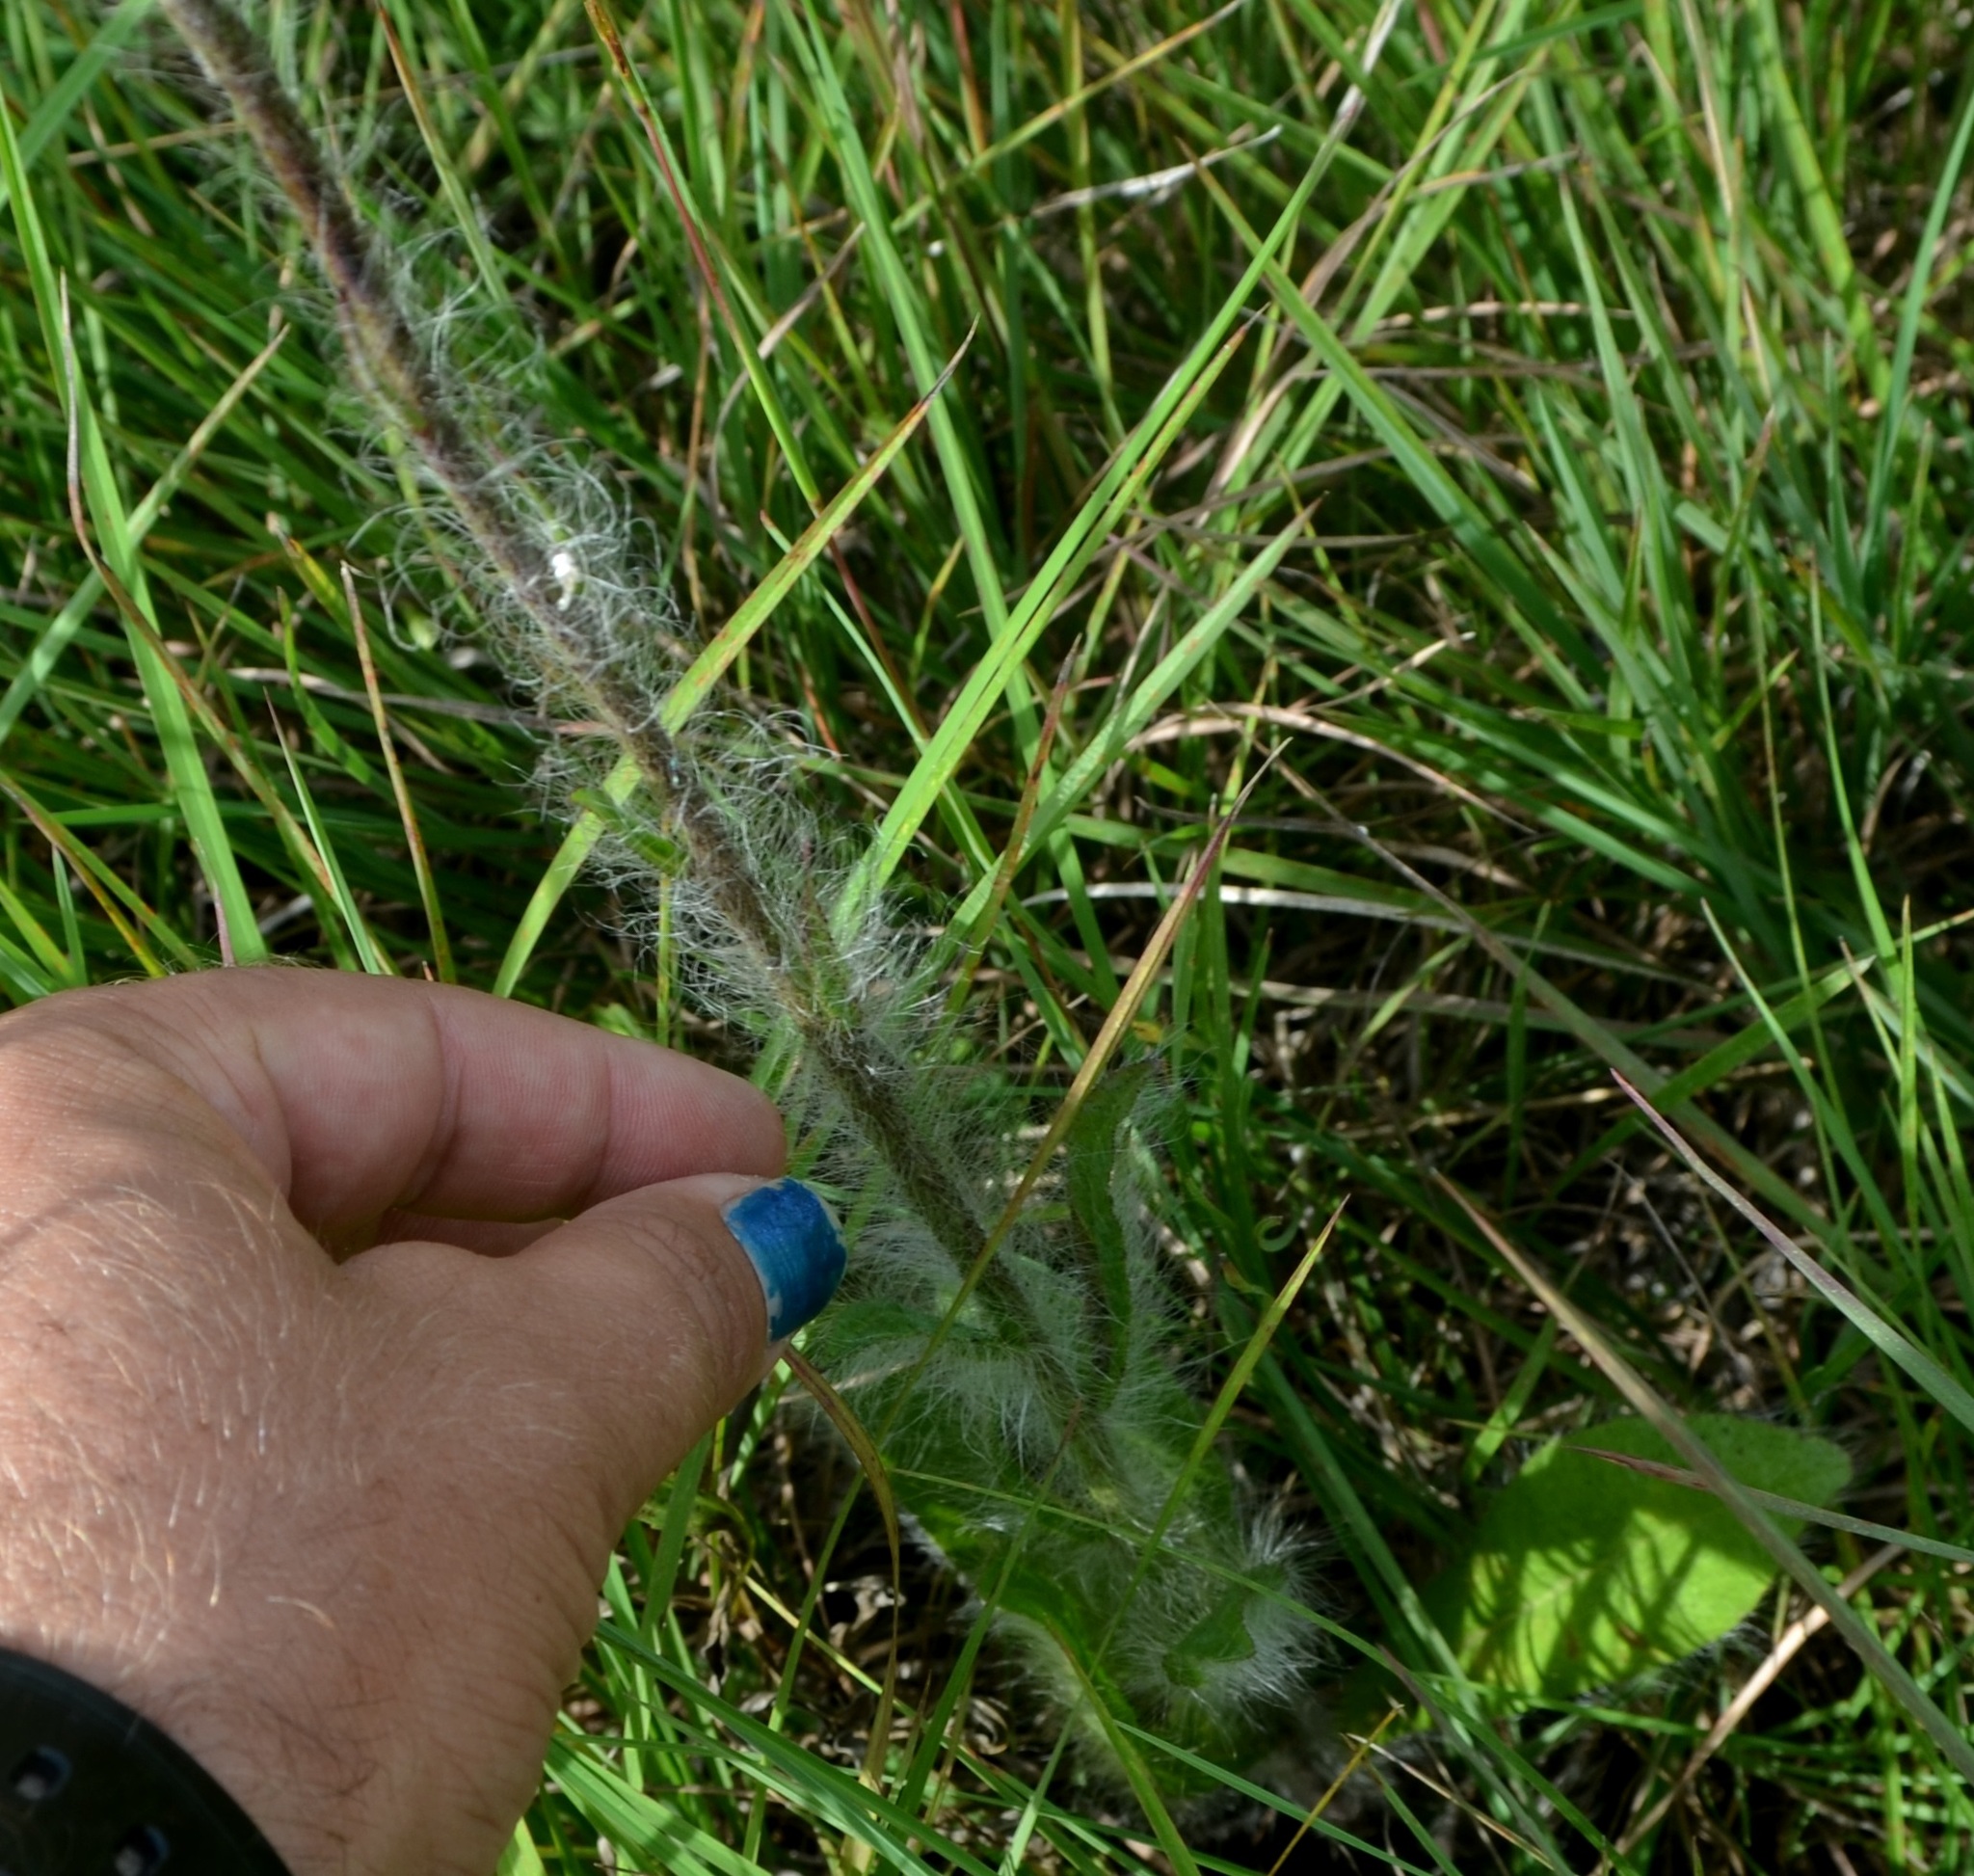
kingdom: Plantae
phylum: Tracheophyta
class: Magnoliopsida
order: Asterales
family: Asteraceae
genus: Hieracium
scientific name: Hieracium longipilum
